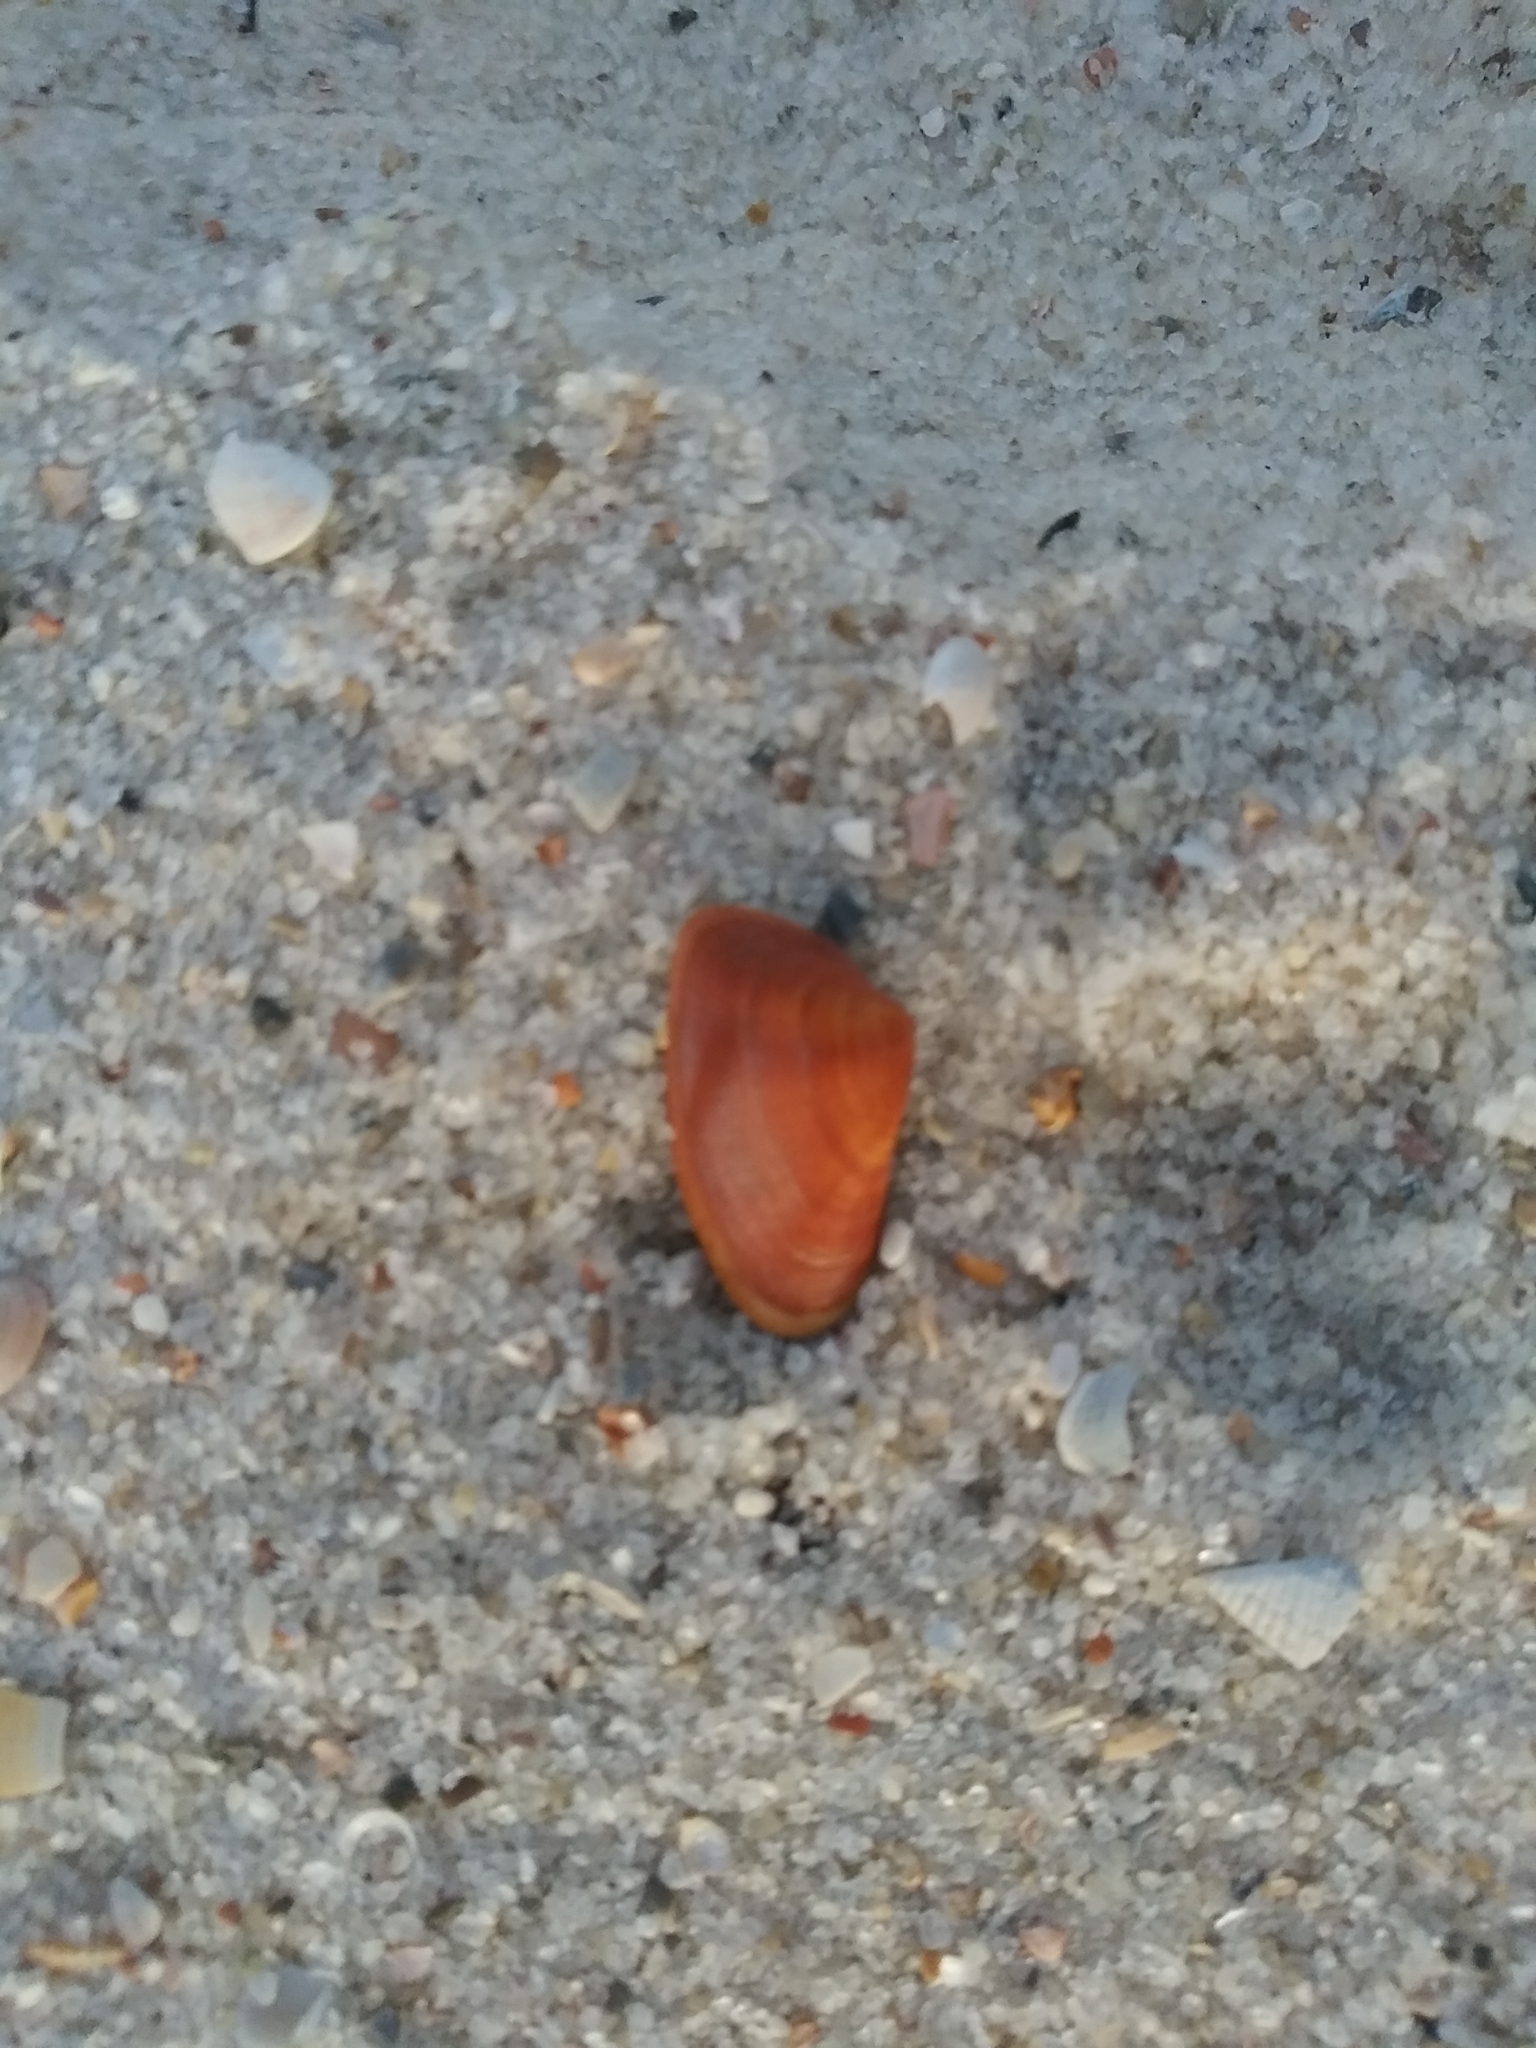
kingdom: Animalia
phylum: Mollusca
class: Bivalvia
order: Cardiida
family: Donacidae
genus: Donax
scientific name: Donax variabilis
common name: Butterfly shell
